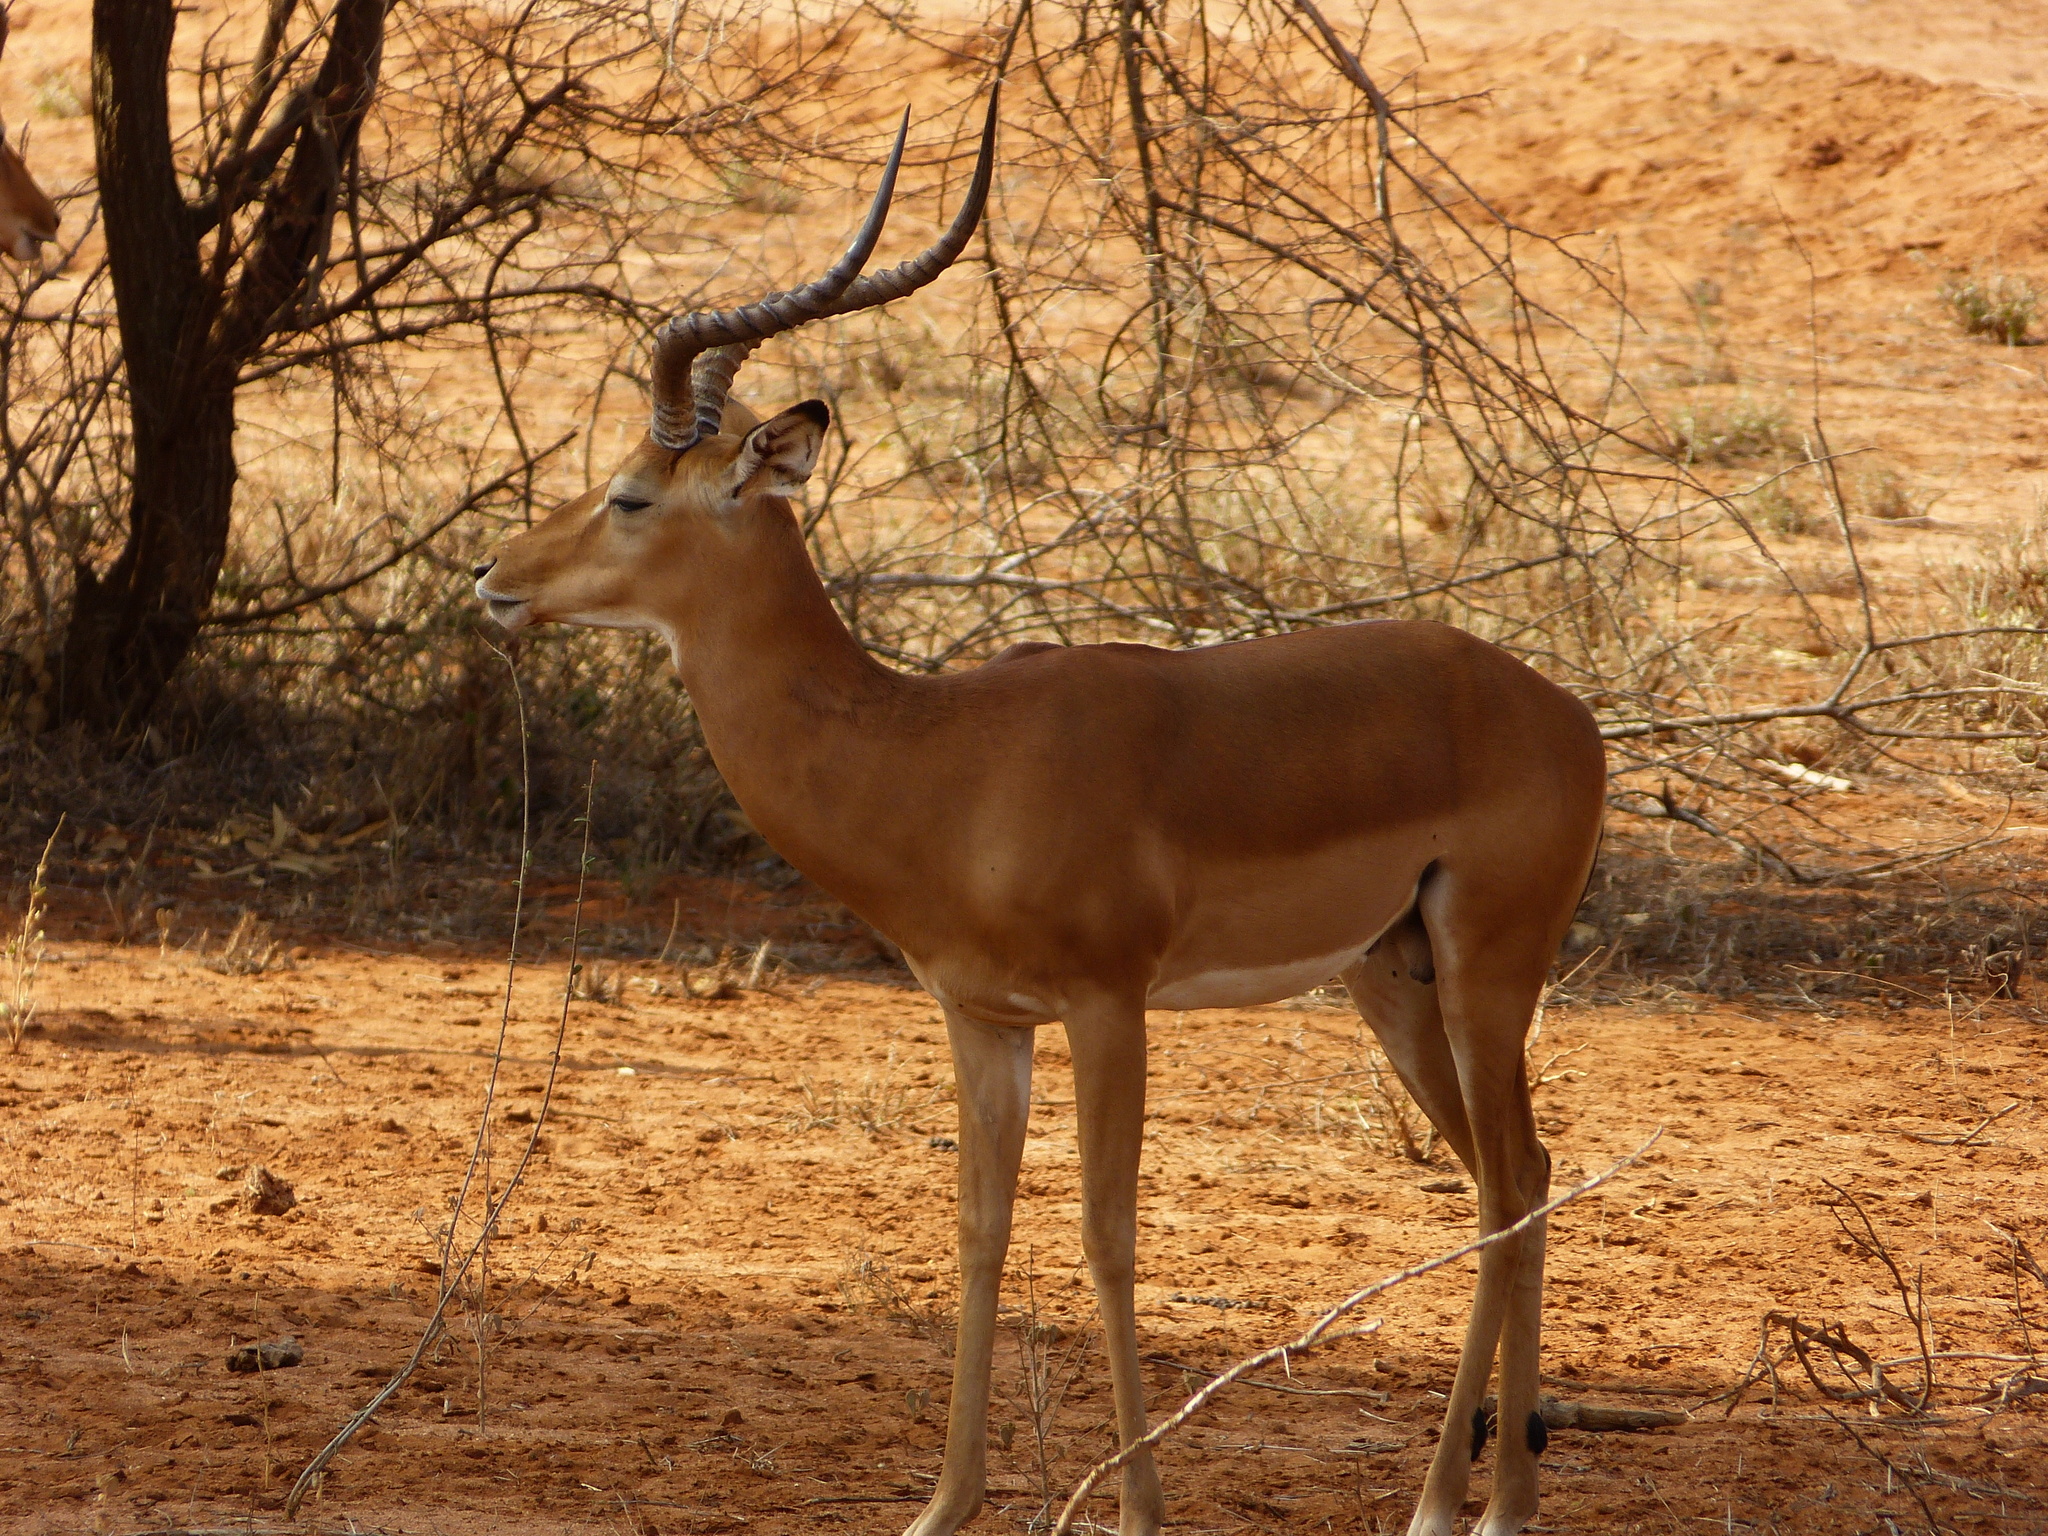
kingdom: Animalia
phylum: Chordata
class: Mammalia
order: Artiodactyla
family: Bovidae
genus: Aepyceros
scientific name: Aepyceros melampus
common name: Impala
